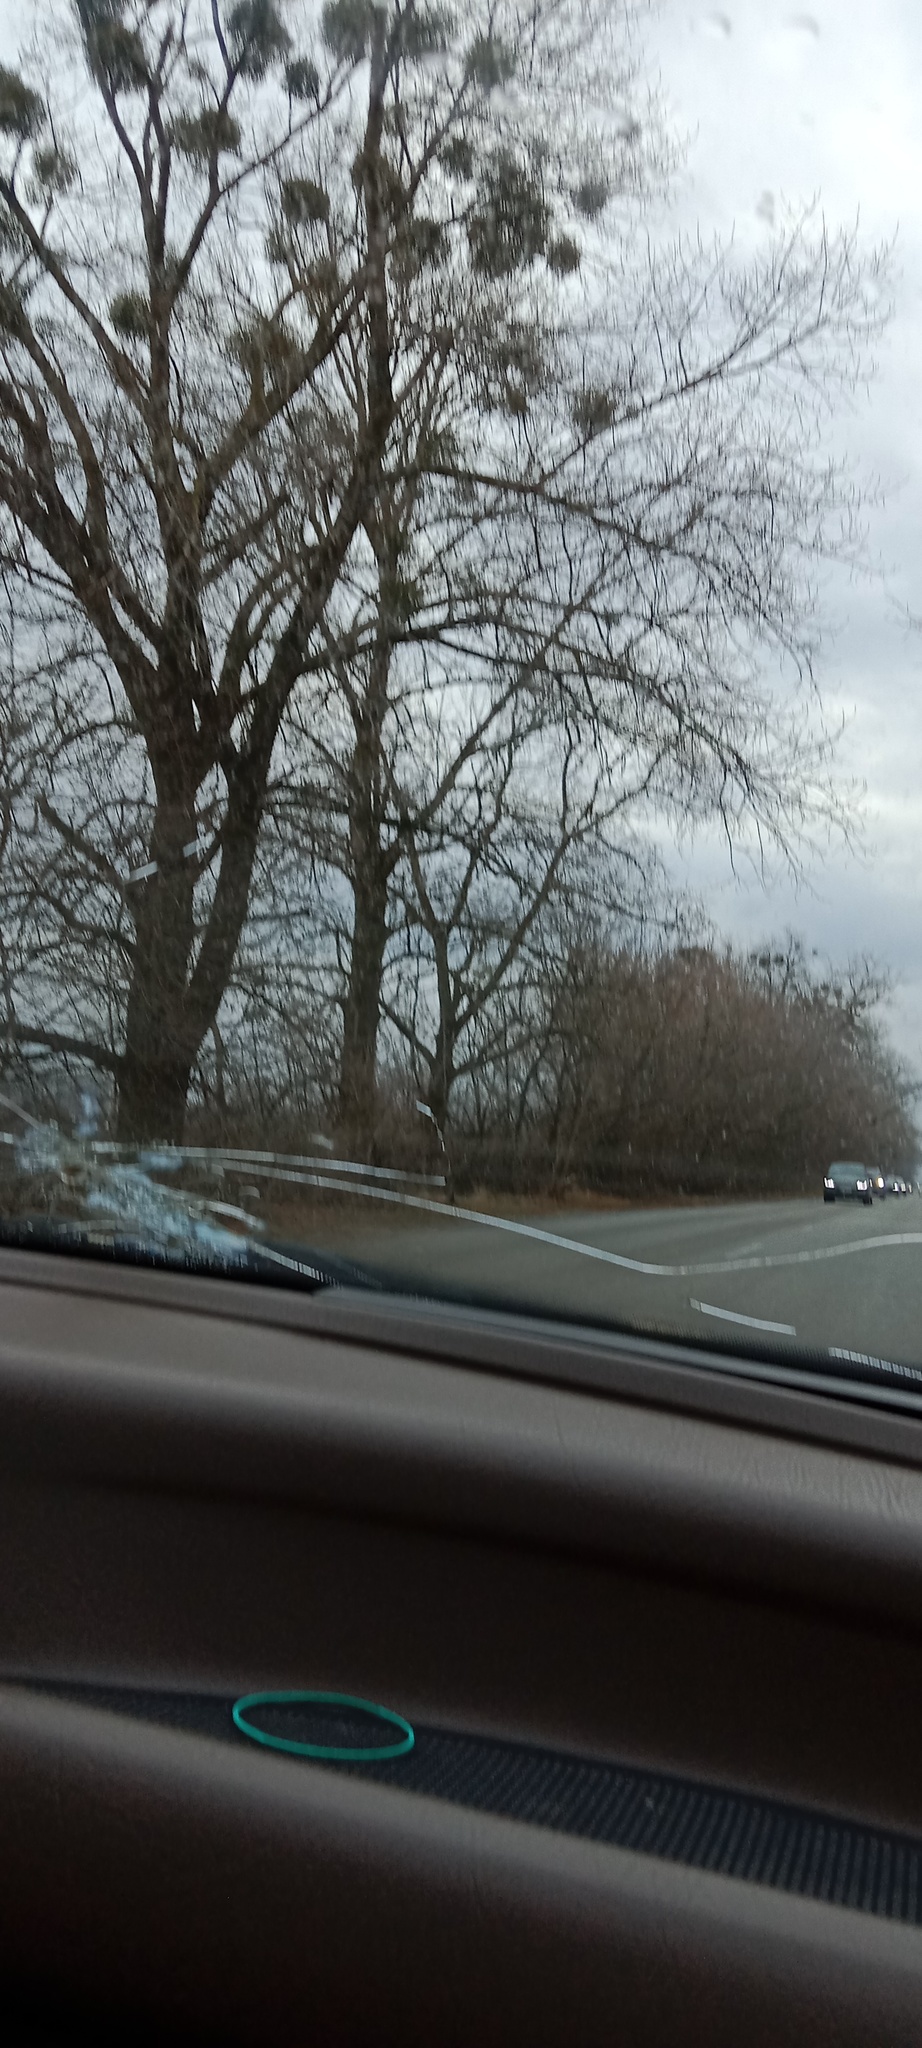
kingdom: Plantae
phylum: Tracheophyta
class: Magnoliopsida
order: Santalales
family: Viscaceae
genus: Viscum
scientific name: Viscum album
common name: Mistletoe
